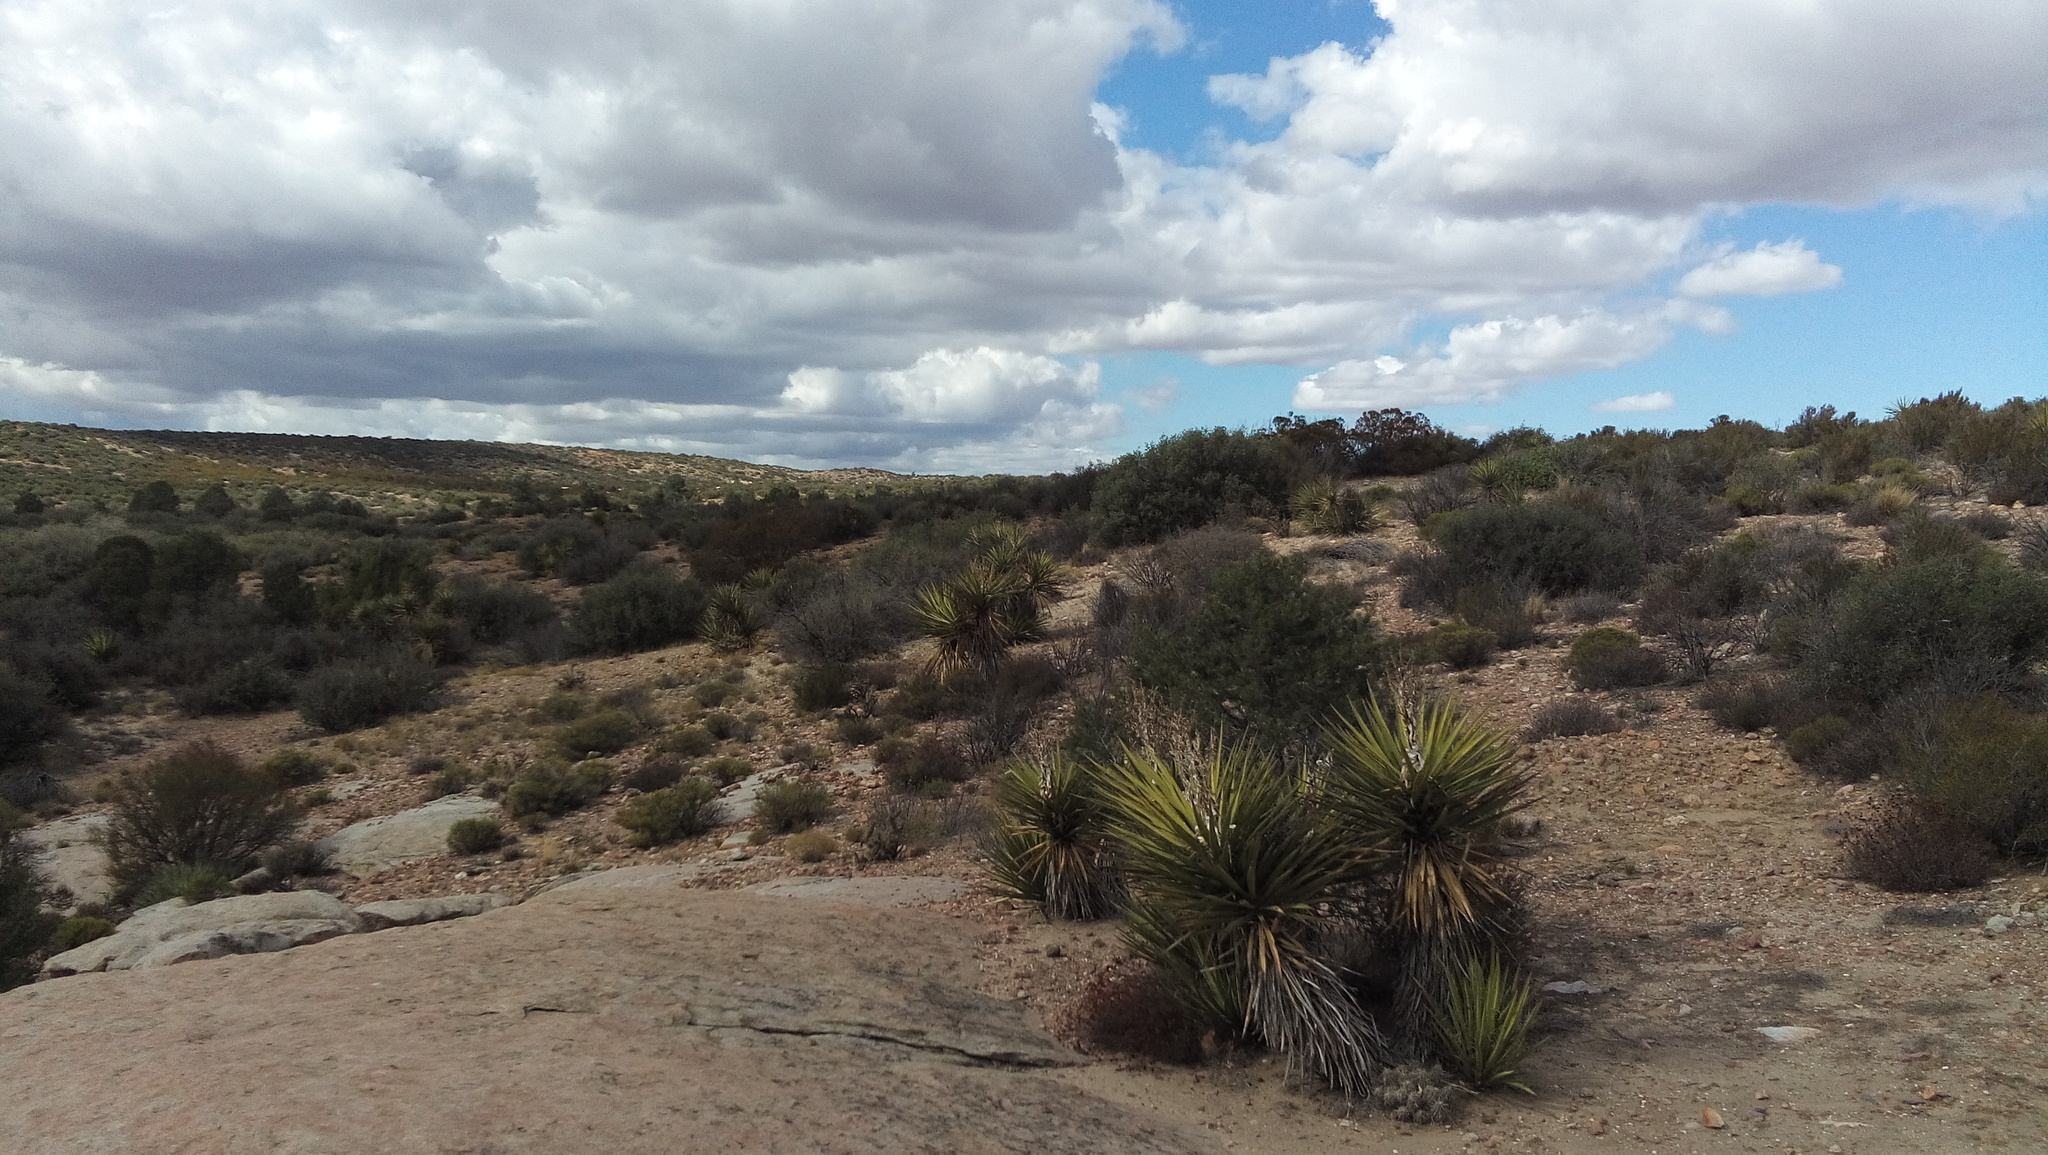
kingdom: Plantae
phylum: Tracheophyta
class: Liliopsida
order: Asparagales
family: Asparagaceae
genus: Yucca
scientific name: Yucca schidigera
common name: Mojave yucca
